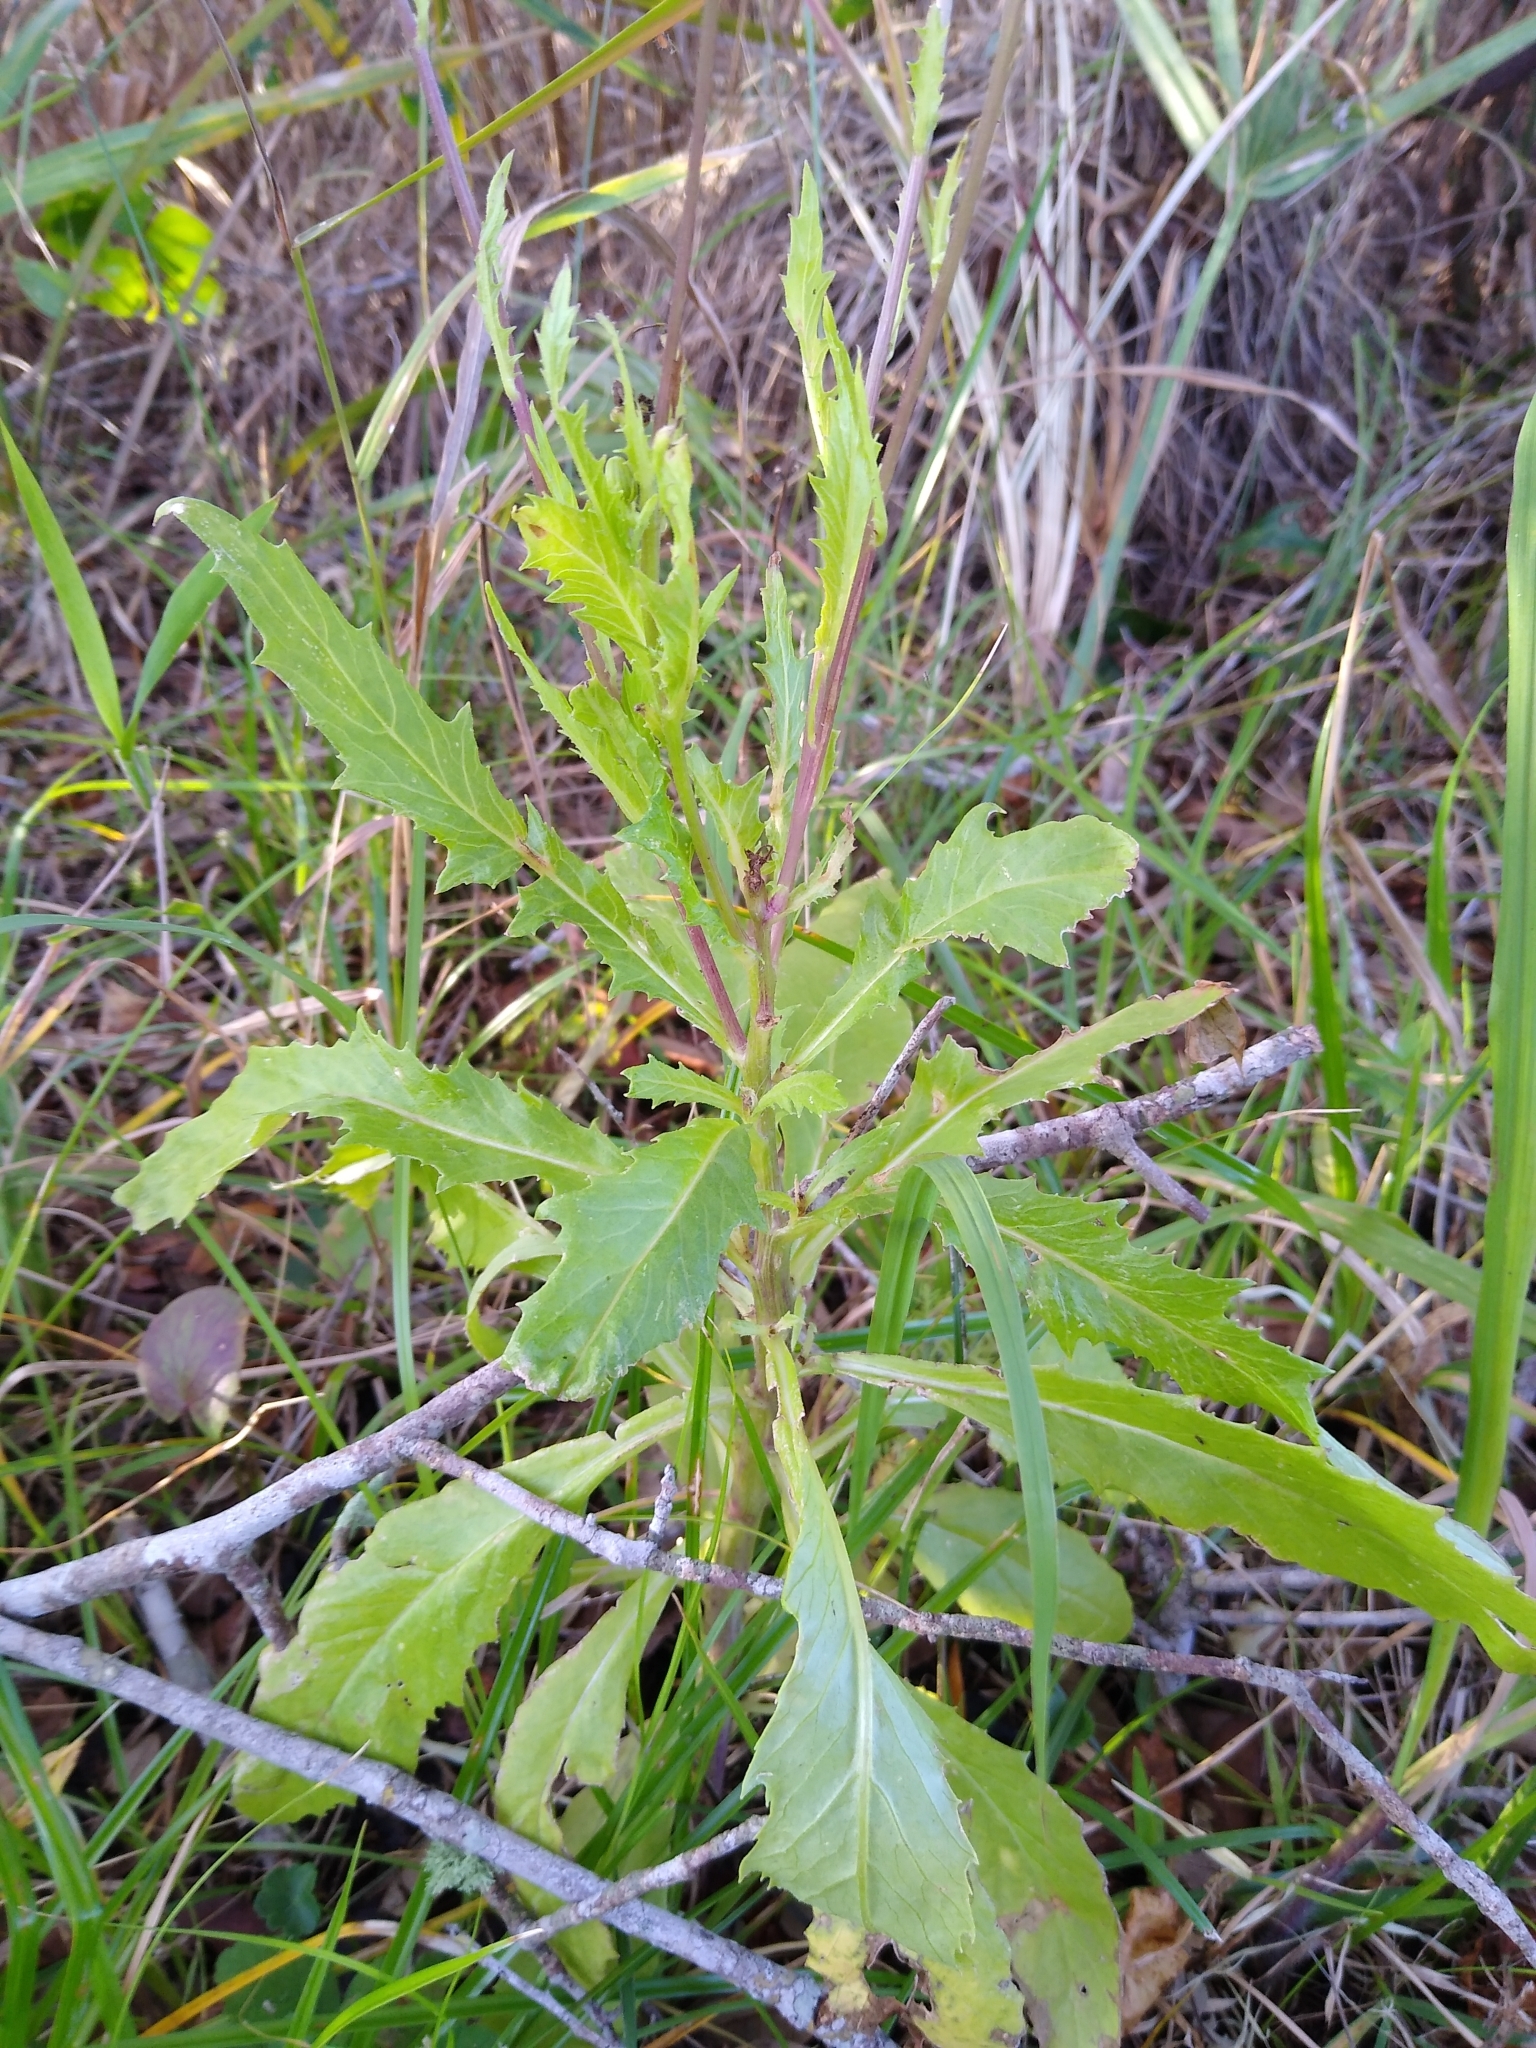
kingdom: Plantae
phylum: Tracheophyta
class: Magnoliopsida
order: Asterales
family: Asteraceae
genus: Erechtites
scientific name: Erechtites hieraciifolius
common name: American burnweed
